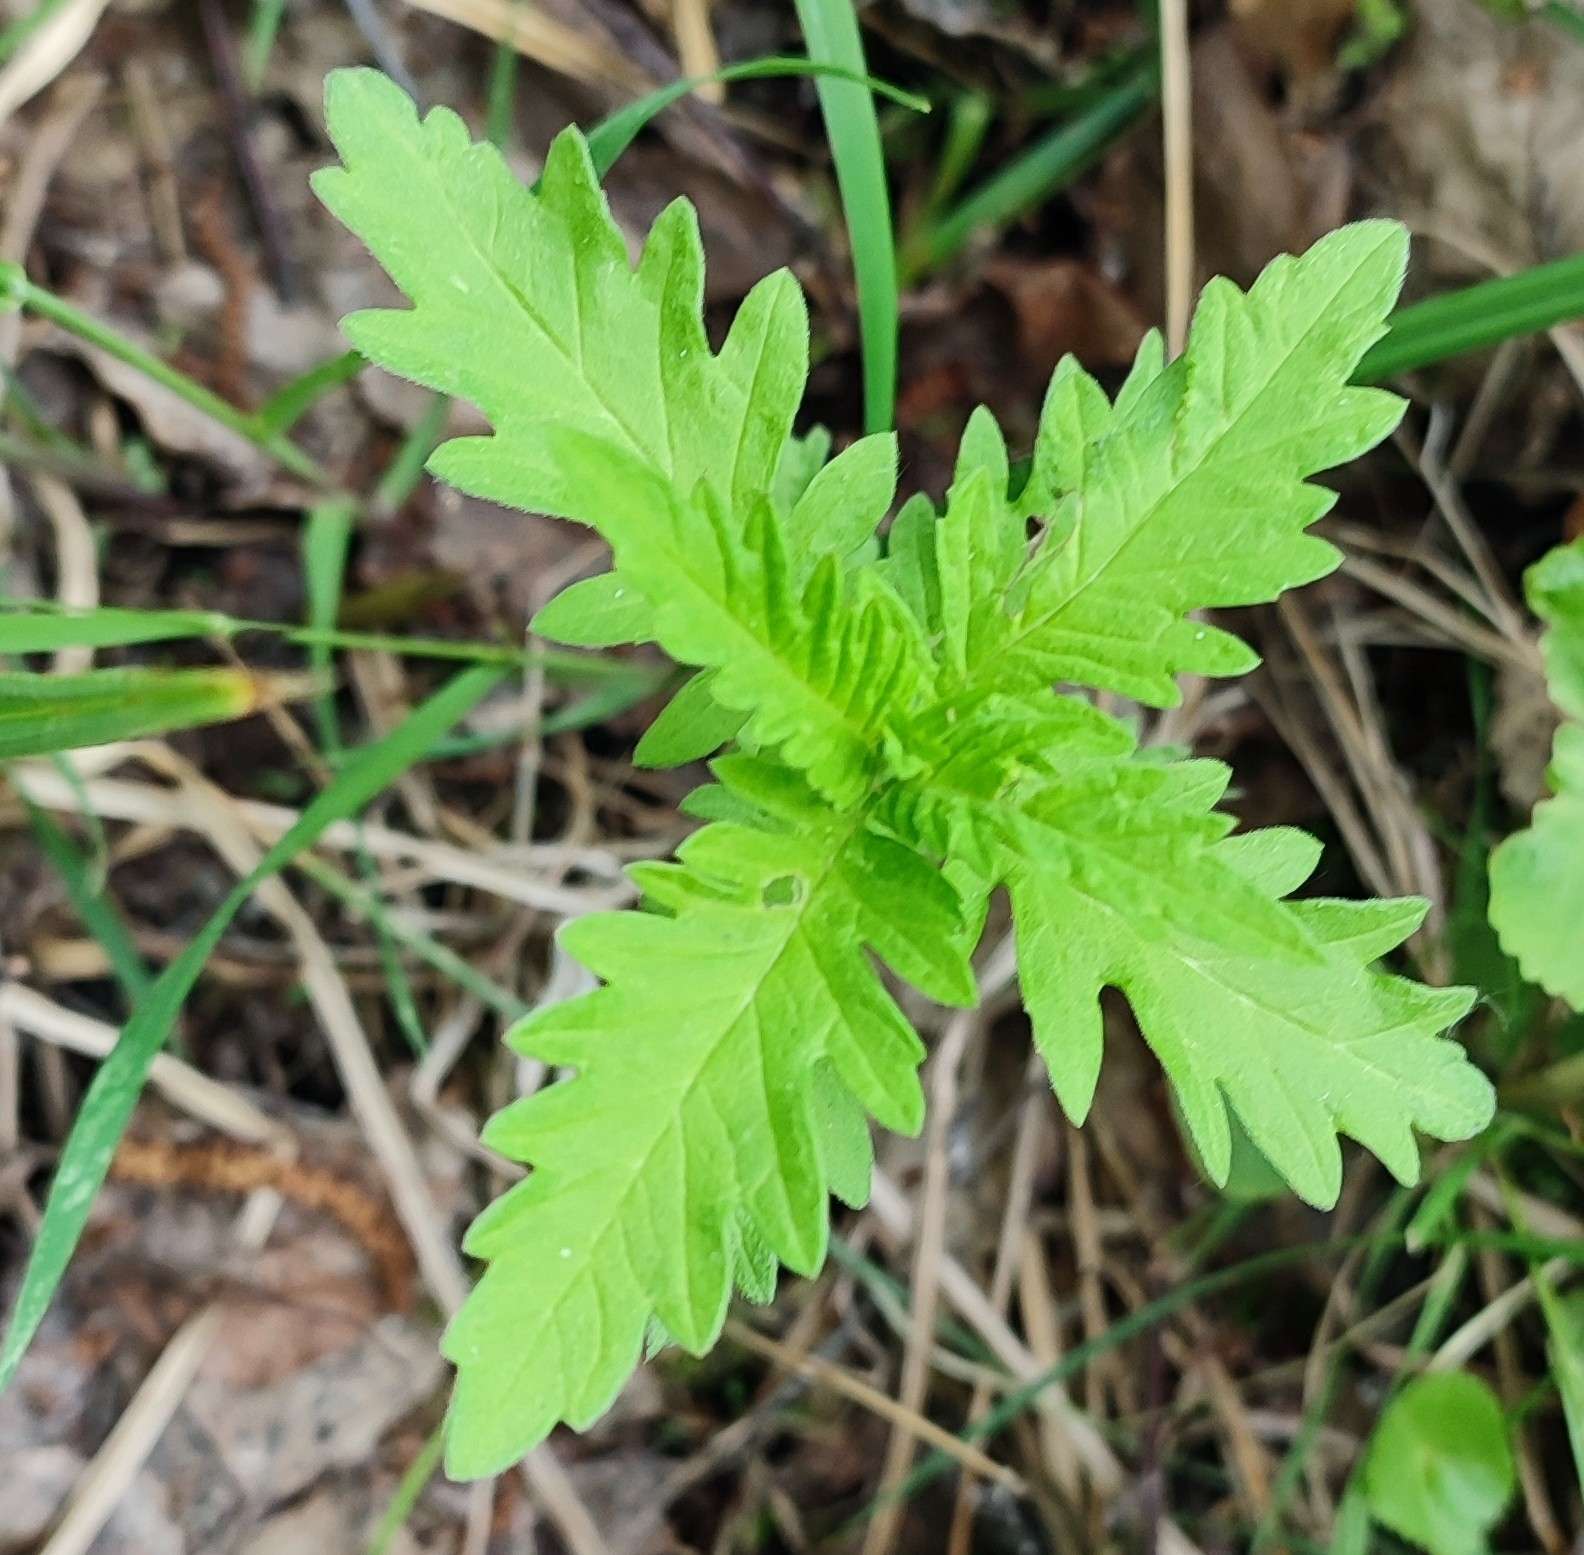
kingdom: Plantae
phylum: Tracheophyta
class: Magnoliopsida
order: Lamiales
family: Lamiaceae
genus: Lycopus
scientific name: Lycopus europaeus
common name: European bugleweed
